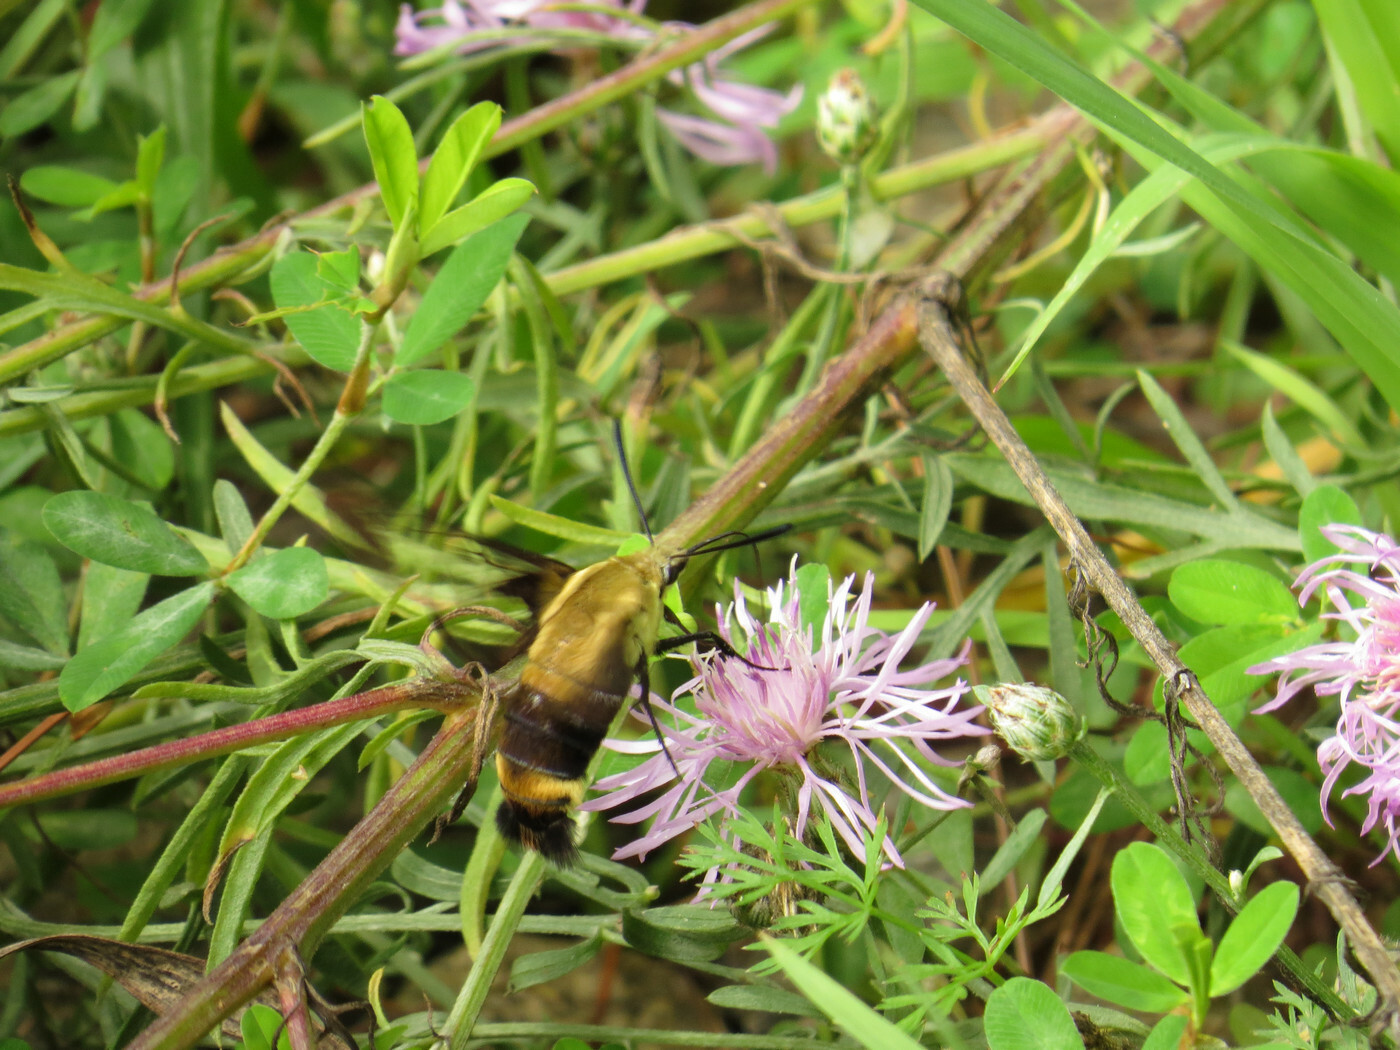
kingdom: Animalia
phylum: Arthropoda
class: Insecta
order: Lepidoptera
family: Sphingidae
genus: Hemaris
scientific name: Hemaris diffinis
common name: Bumblebee moth
